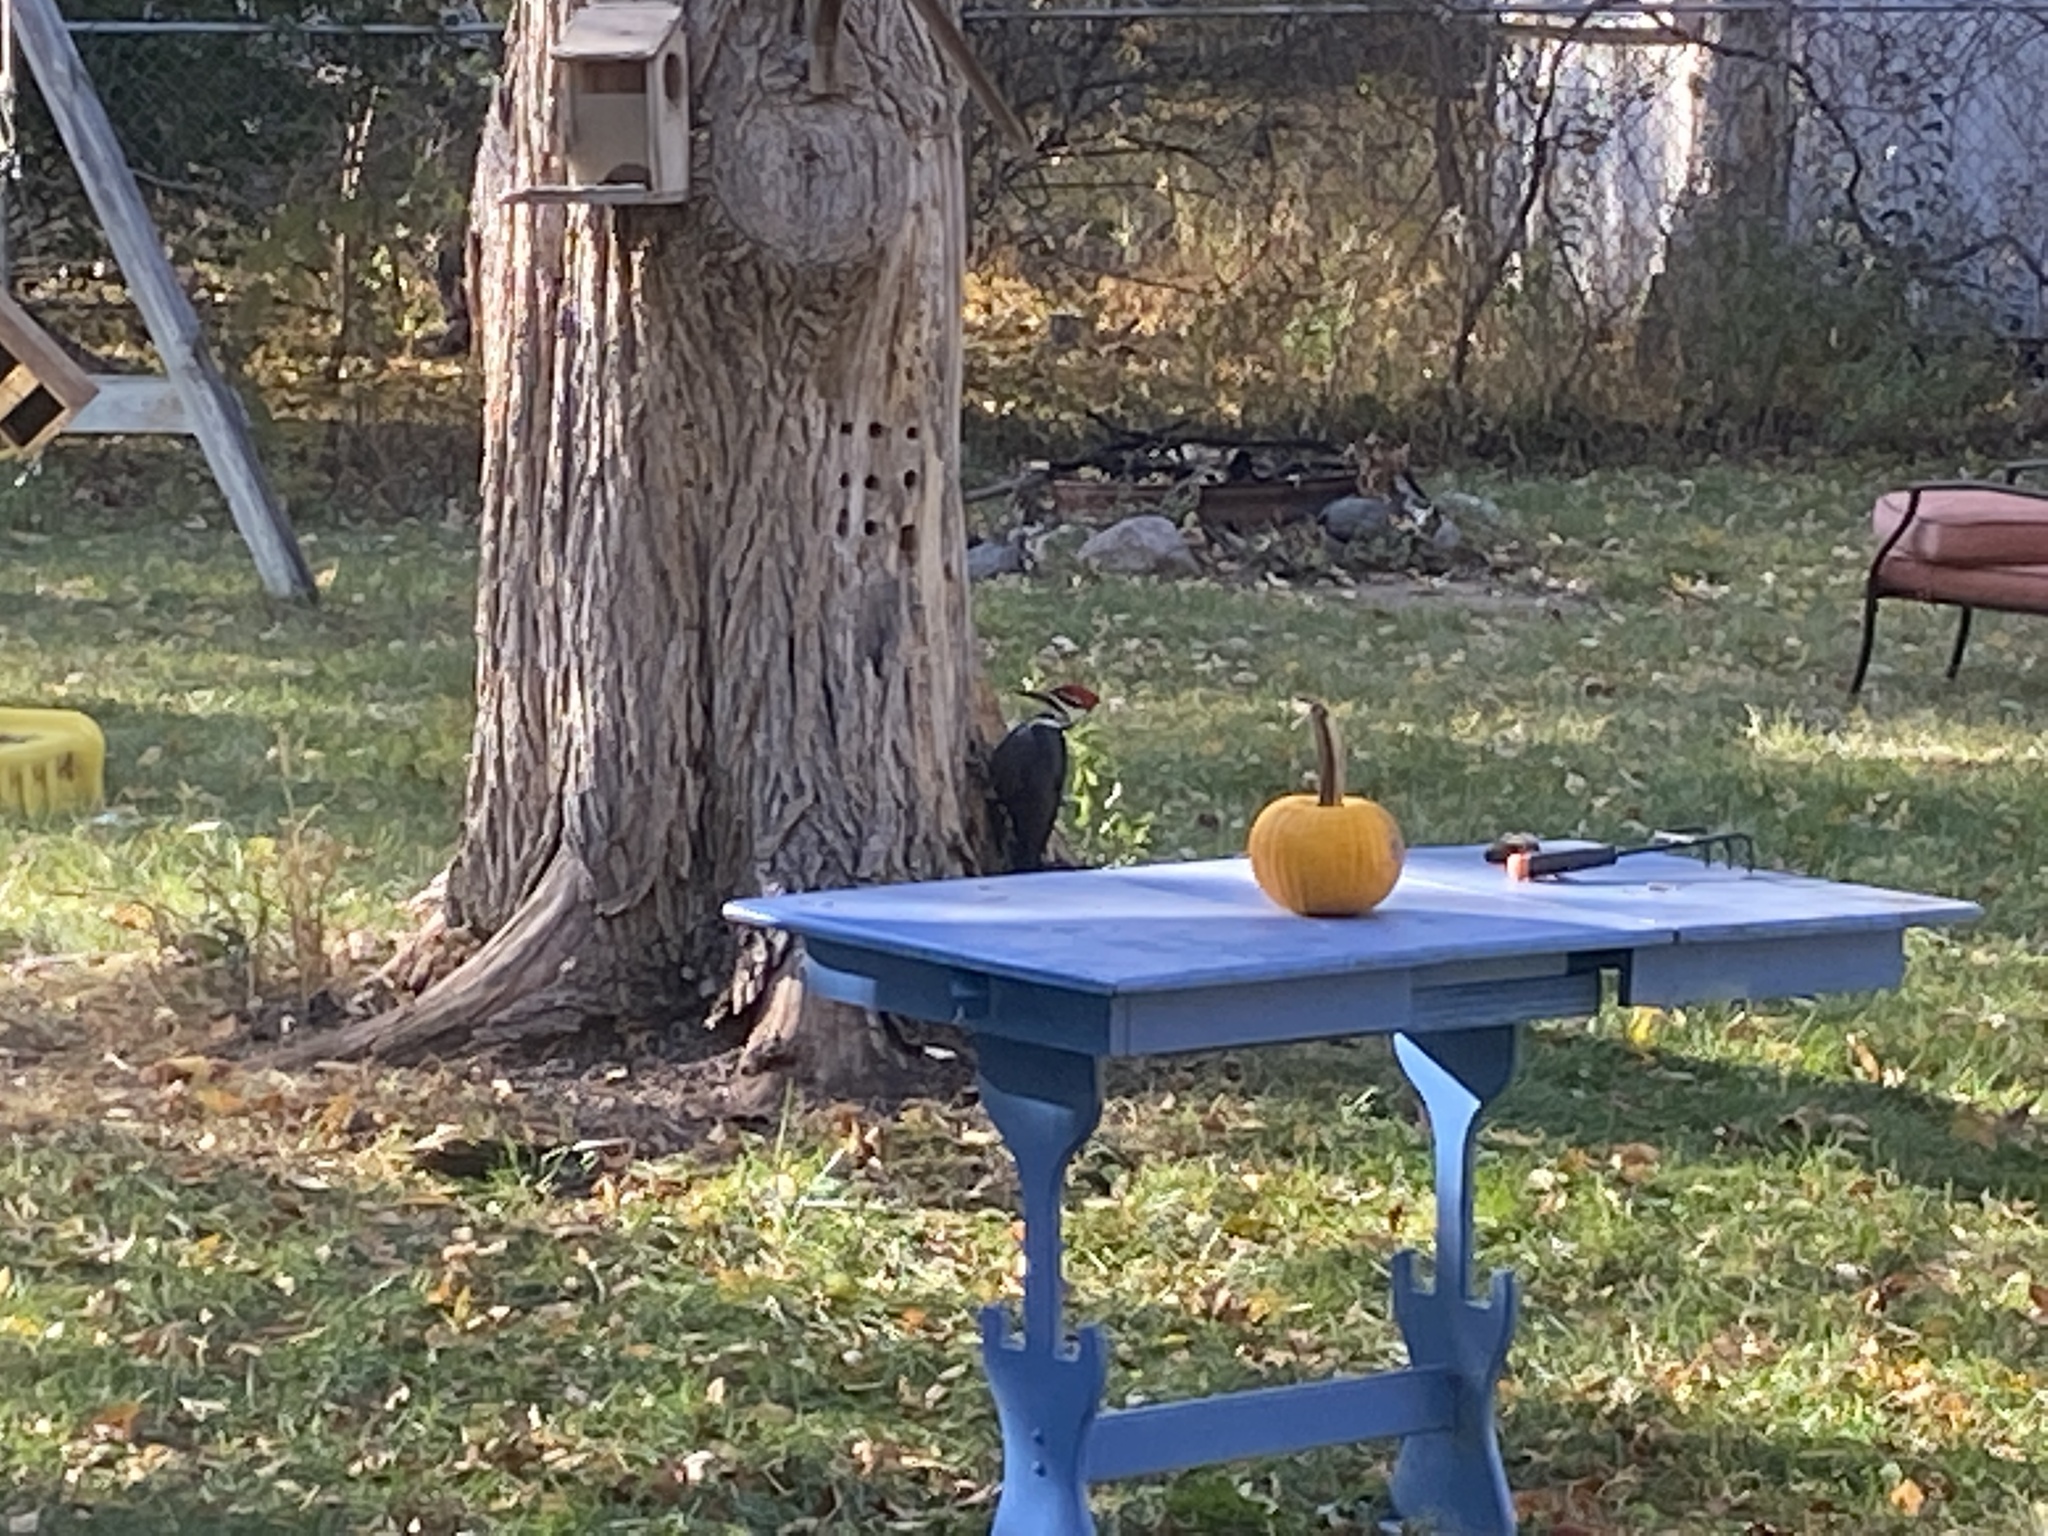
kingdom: Animalia
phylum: Chordata
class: Aves
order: Piciformes
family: Picidae
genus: Dryocopus
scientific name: Dryocopus pileatus
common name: Pileated woodpecker
